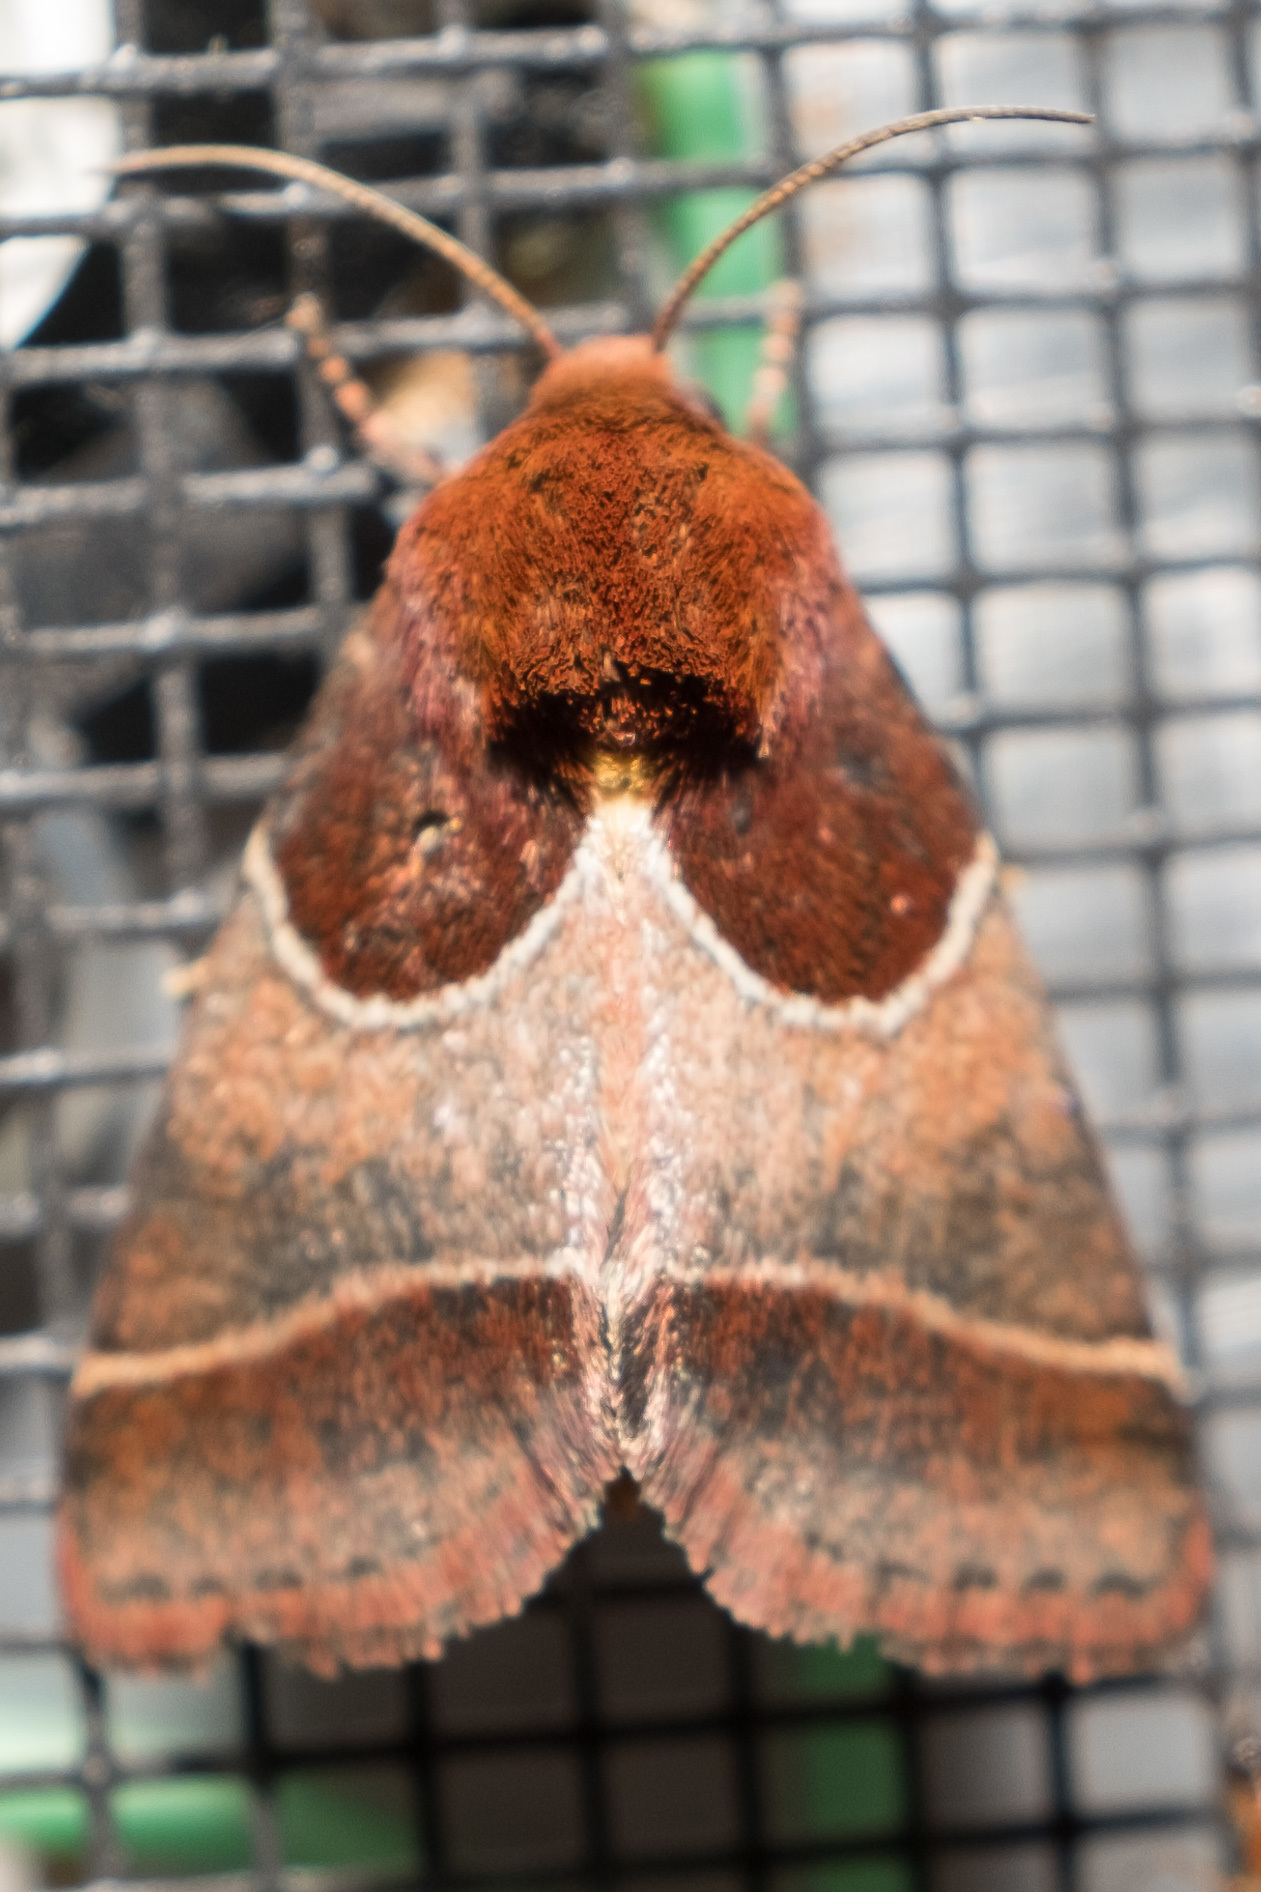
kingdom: Animalia
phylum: Arthropoda
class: Insecta
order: Lepidoptera
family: Noctuidae
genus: Schinia
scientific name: Schinia arcigera
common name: Arcigera flower moth
